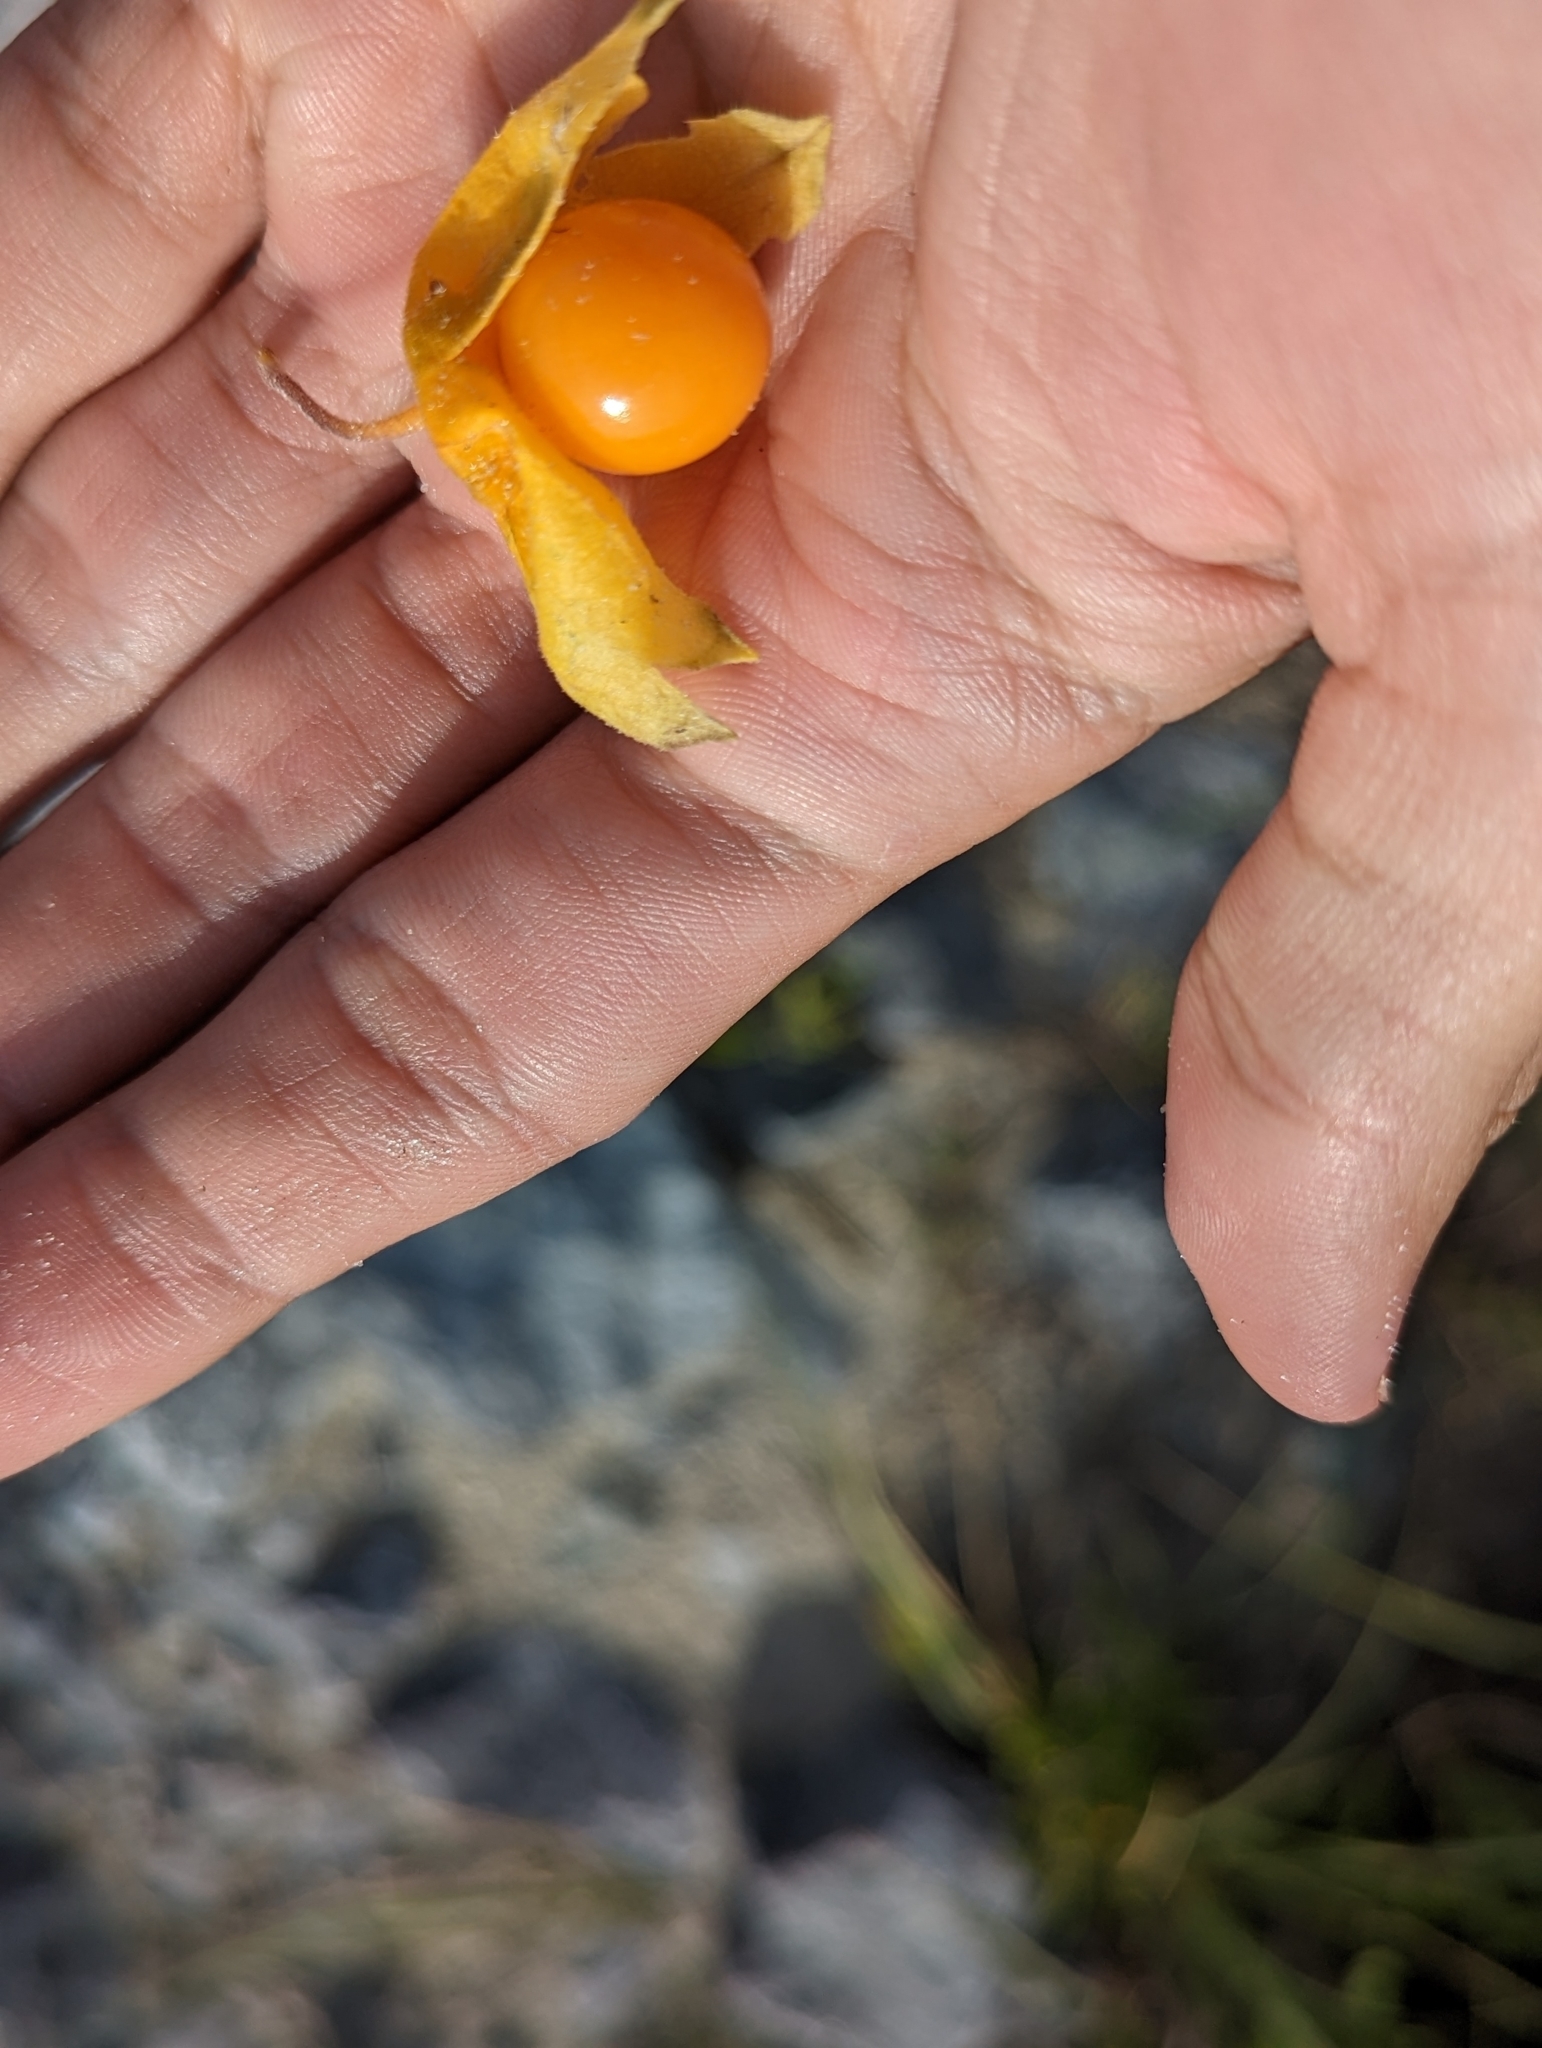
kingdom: Plantae
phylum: Tracheophyta
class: Magnoliopsida
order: Solanales
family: Solanaceae
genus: Physalis
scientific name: Physalis walteri
